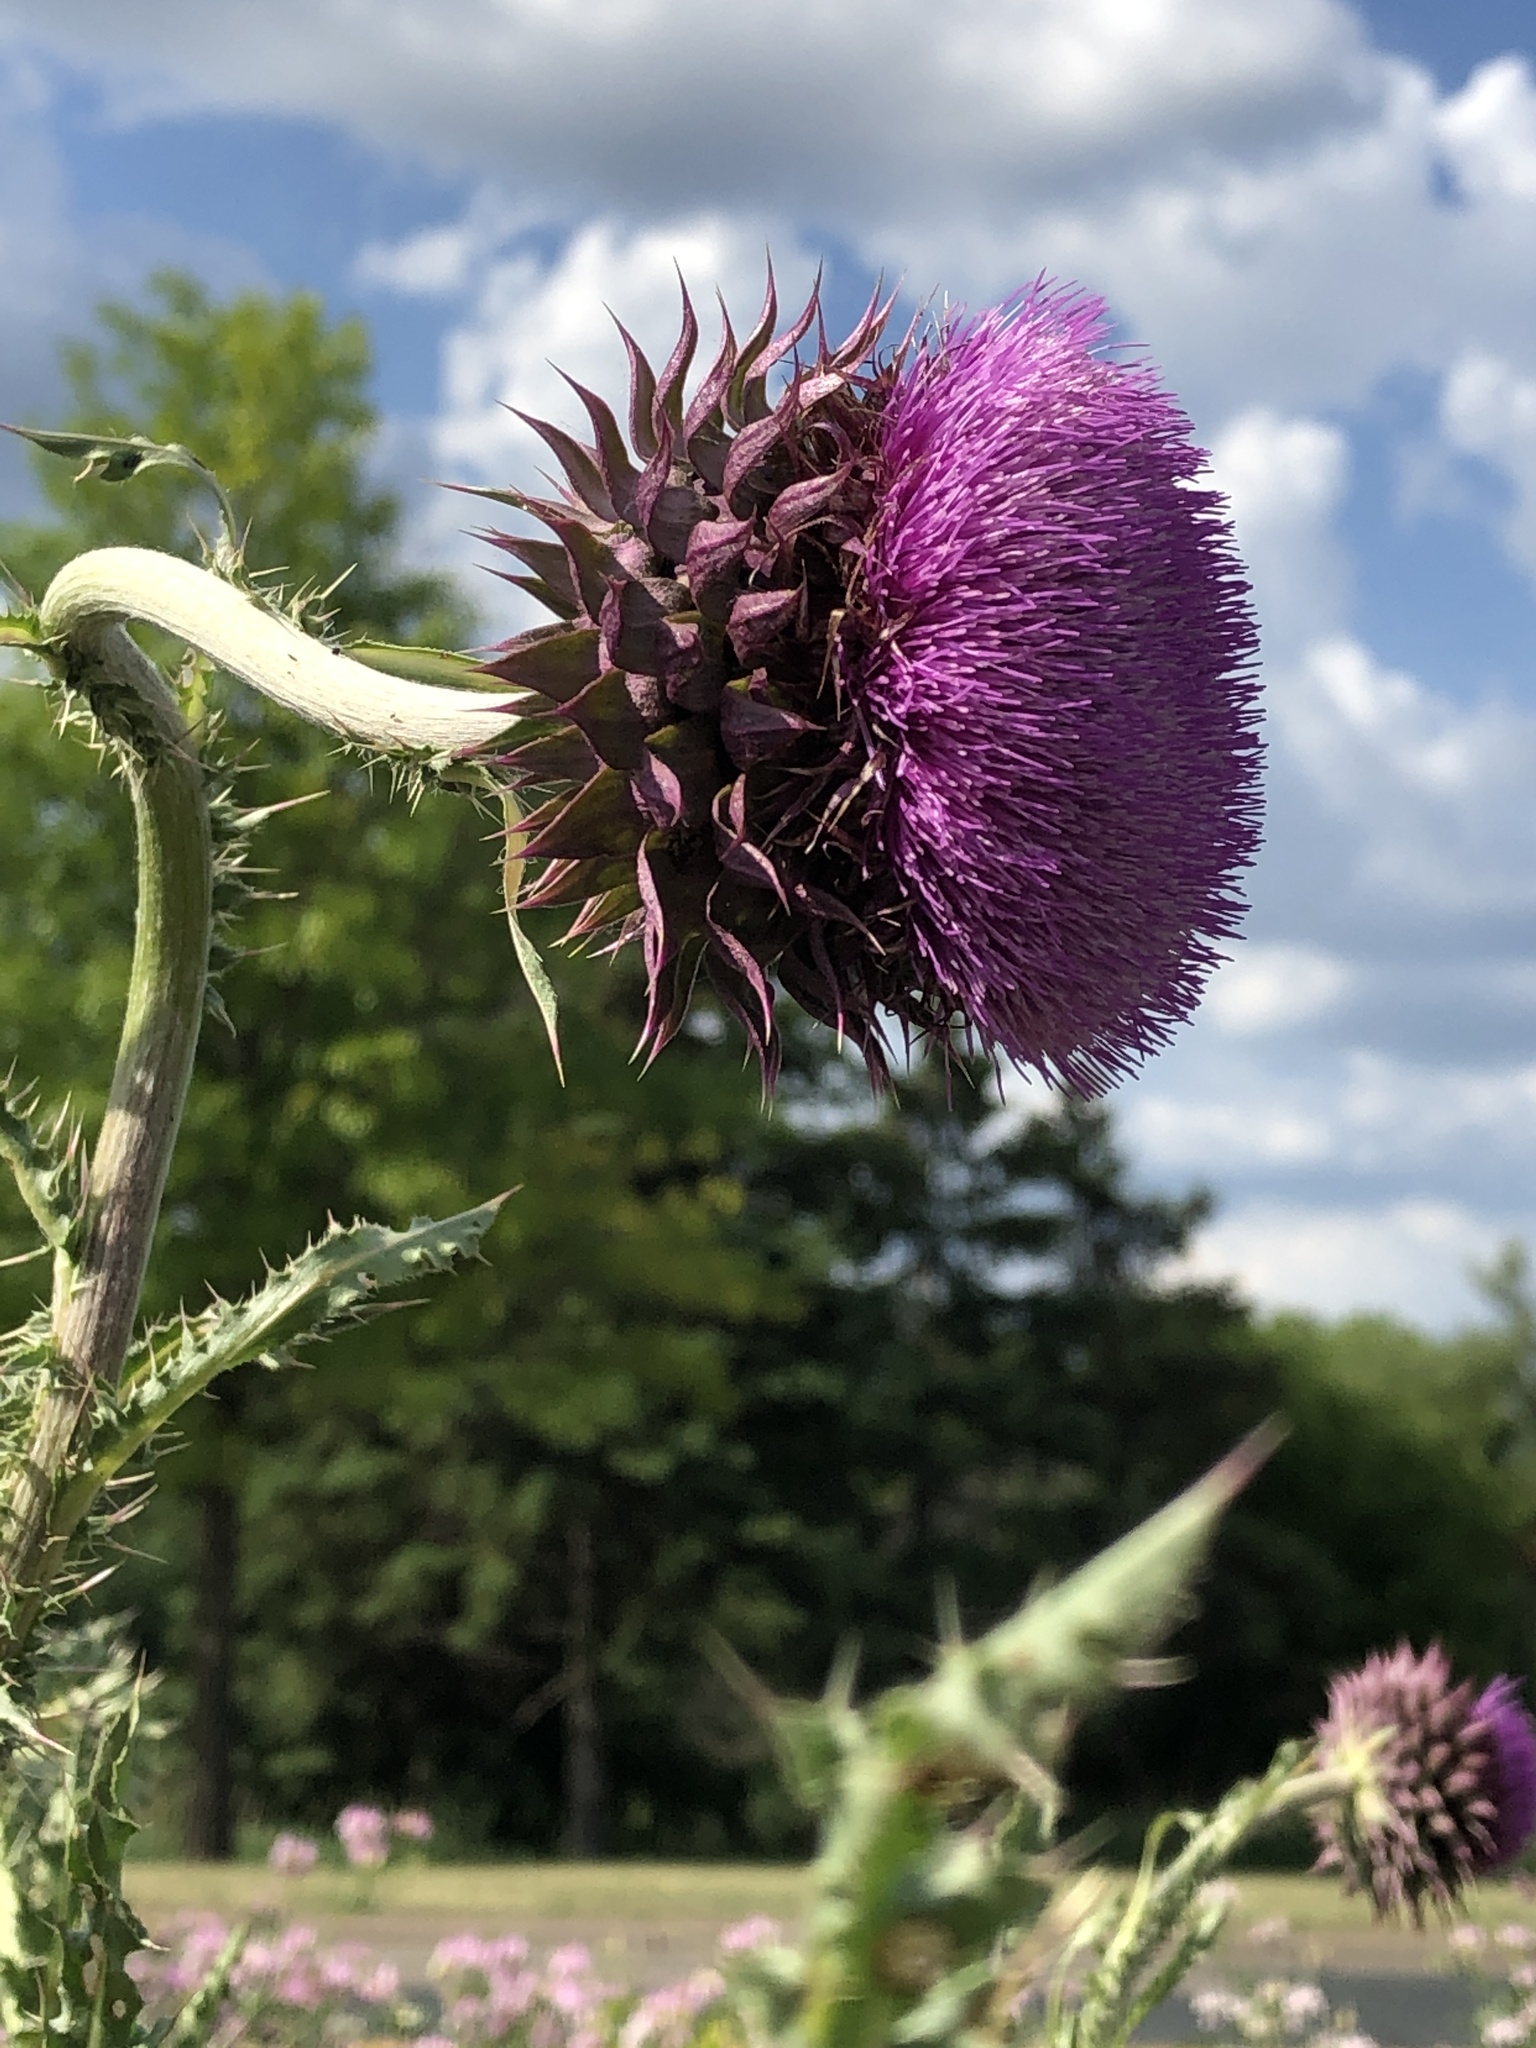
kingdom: Plantae
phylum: Tracheophyta
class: Magnoliopsida
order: Asterales
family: Asteraceae
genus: Carduus
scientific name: Carduus nutans
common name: Musk thistle
